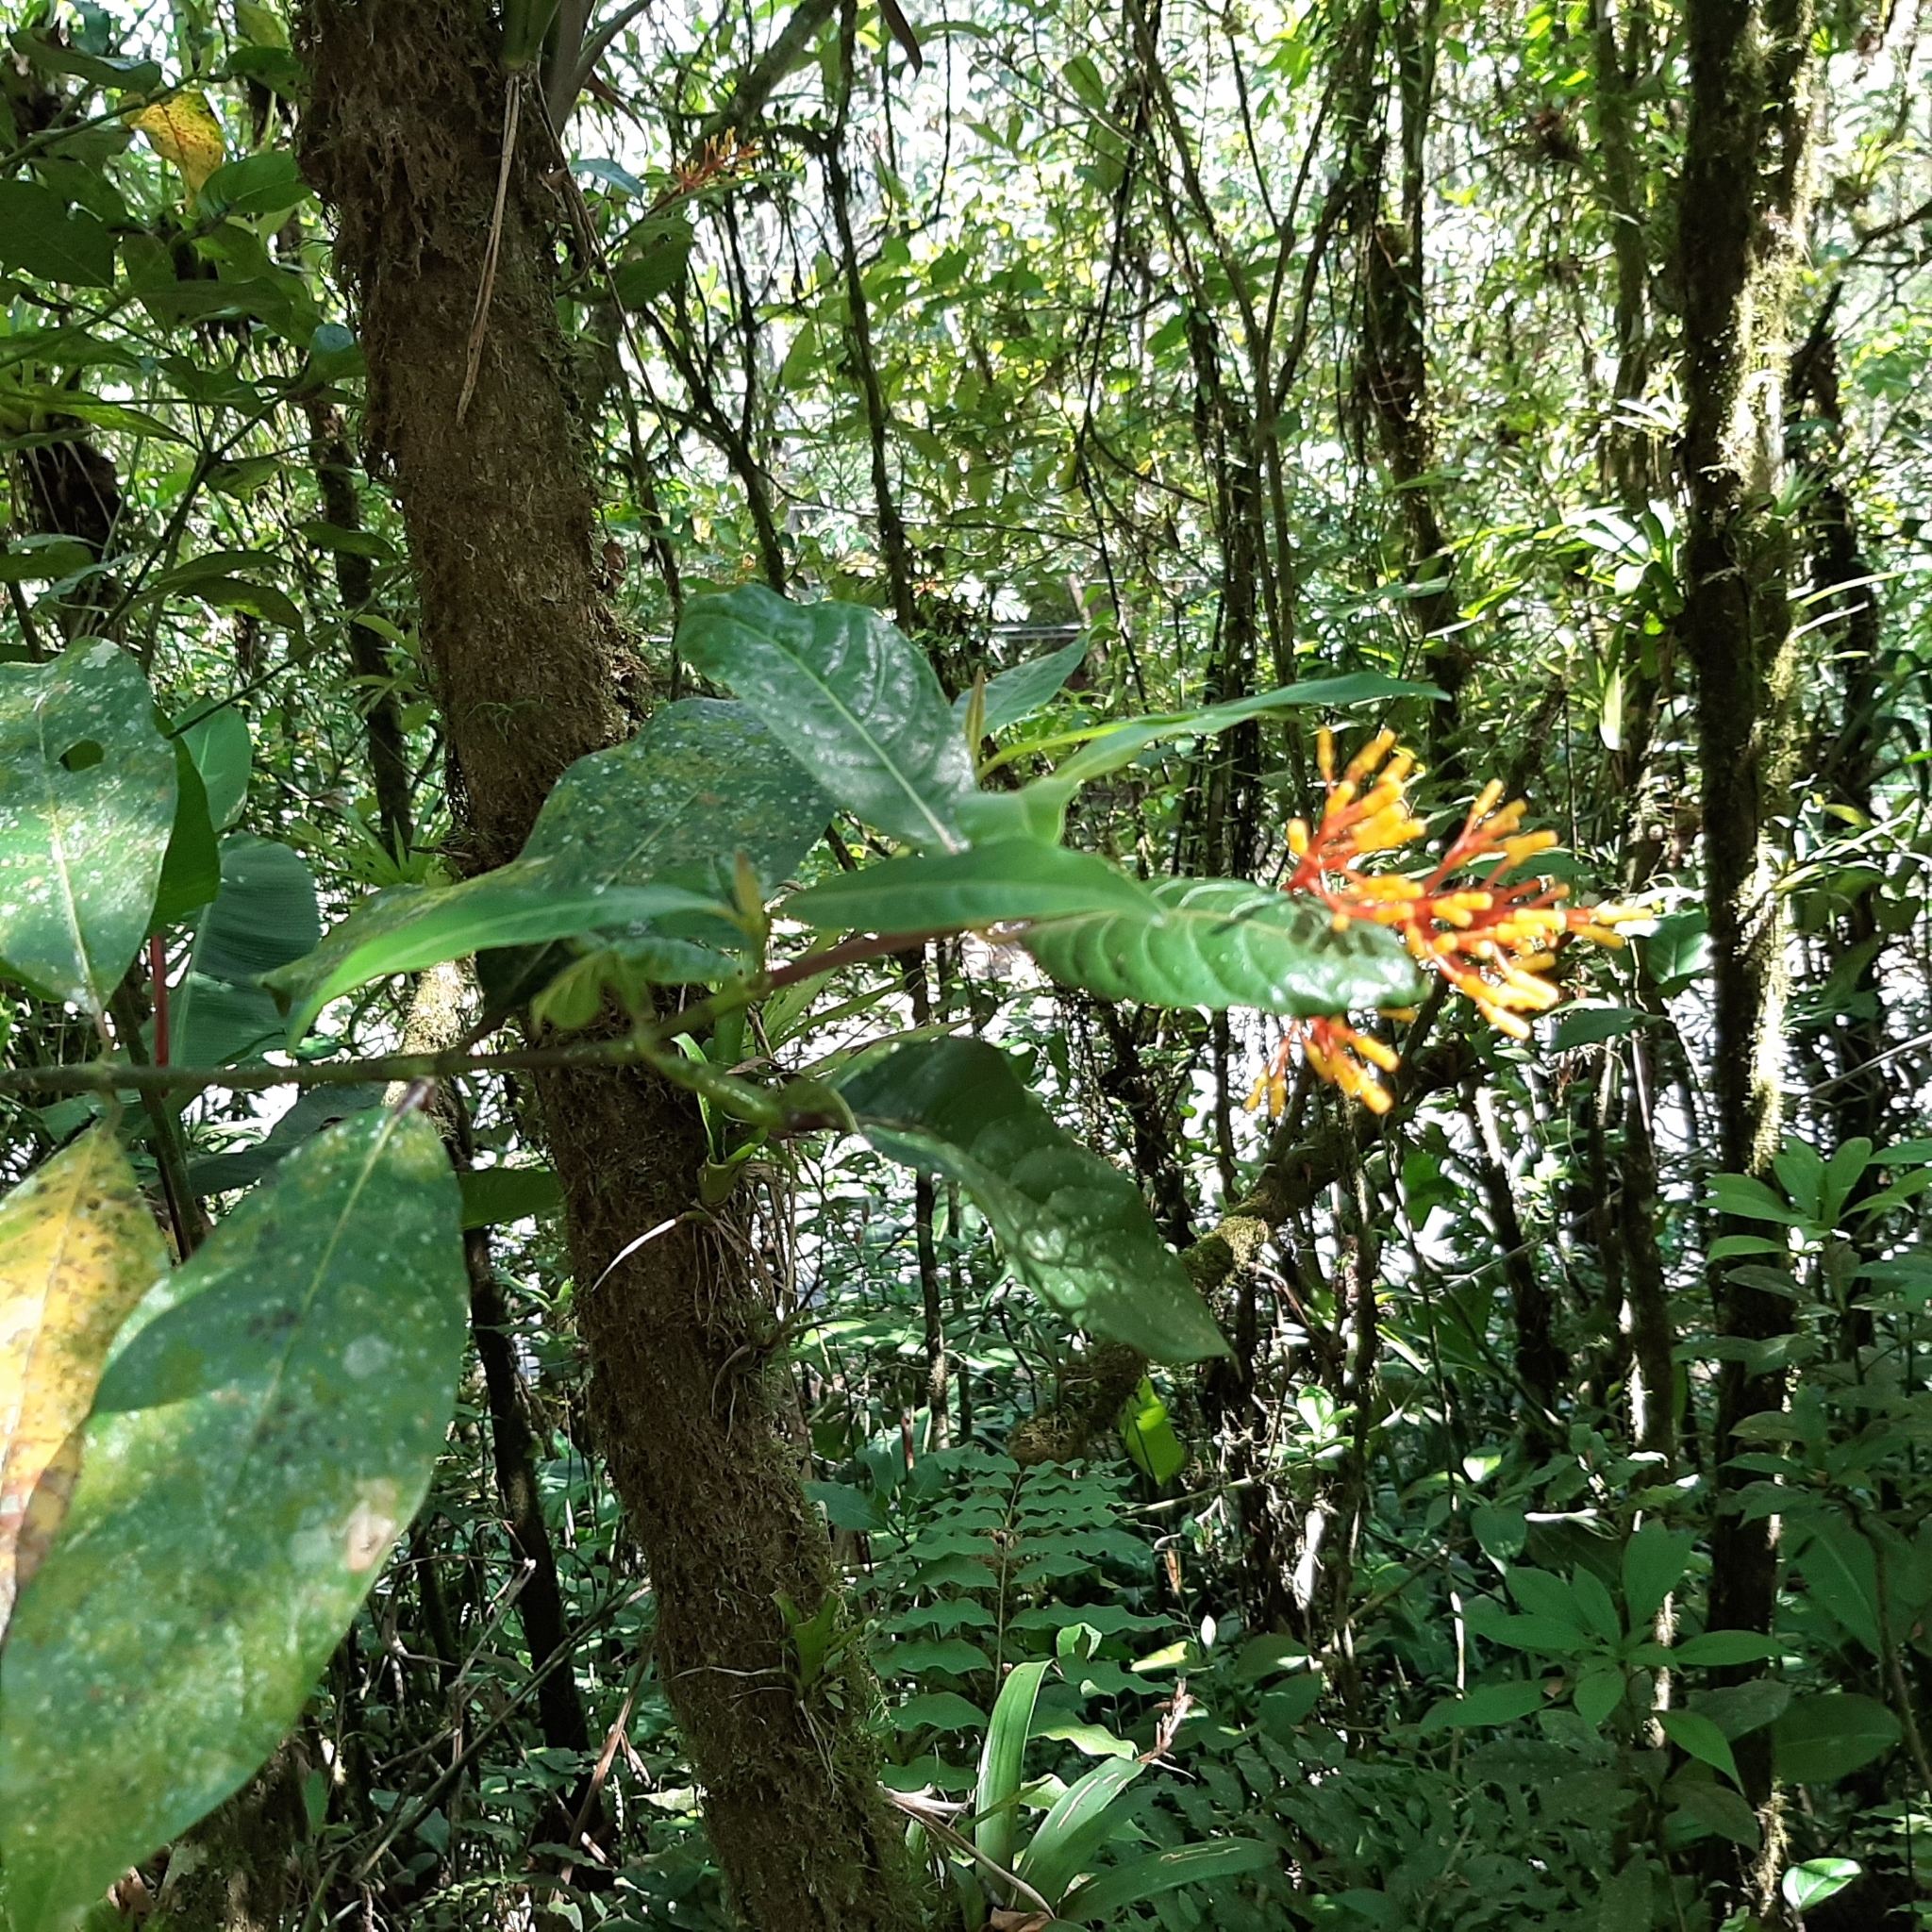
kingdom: Plantae
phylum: Tracheophyta
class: Magnoliopsida
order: Gentianales
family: Rubiaceae
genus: Palicourea
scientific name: Palicourea padifolia
